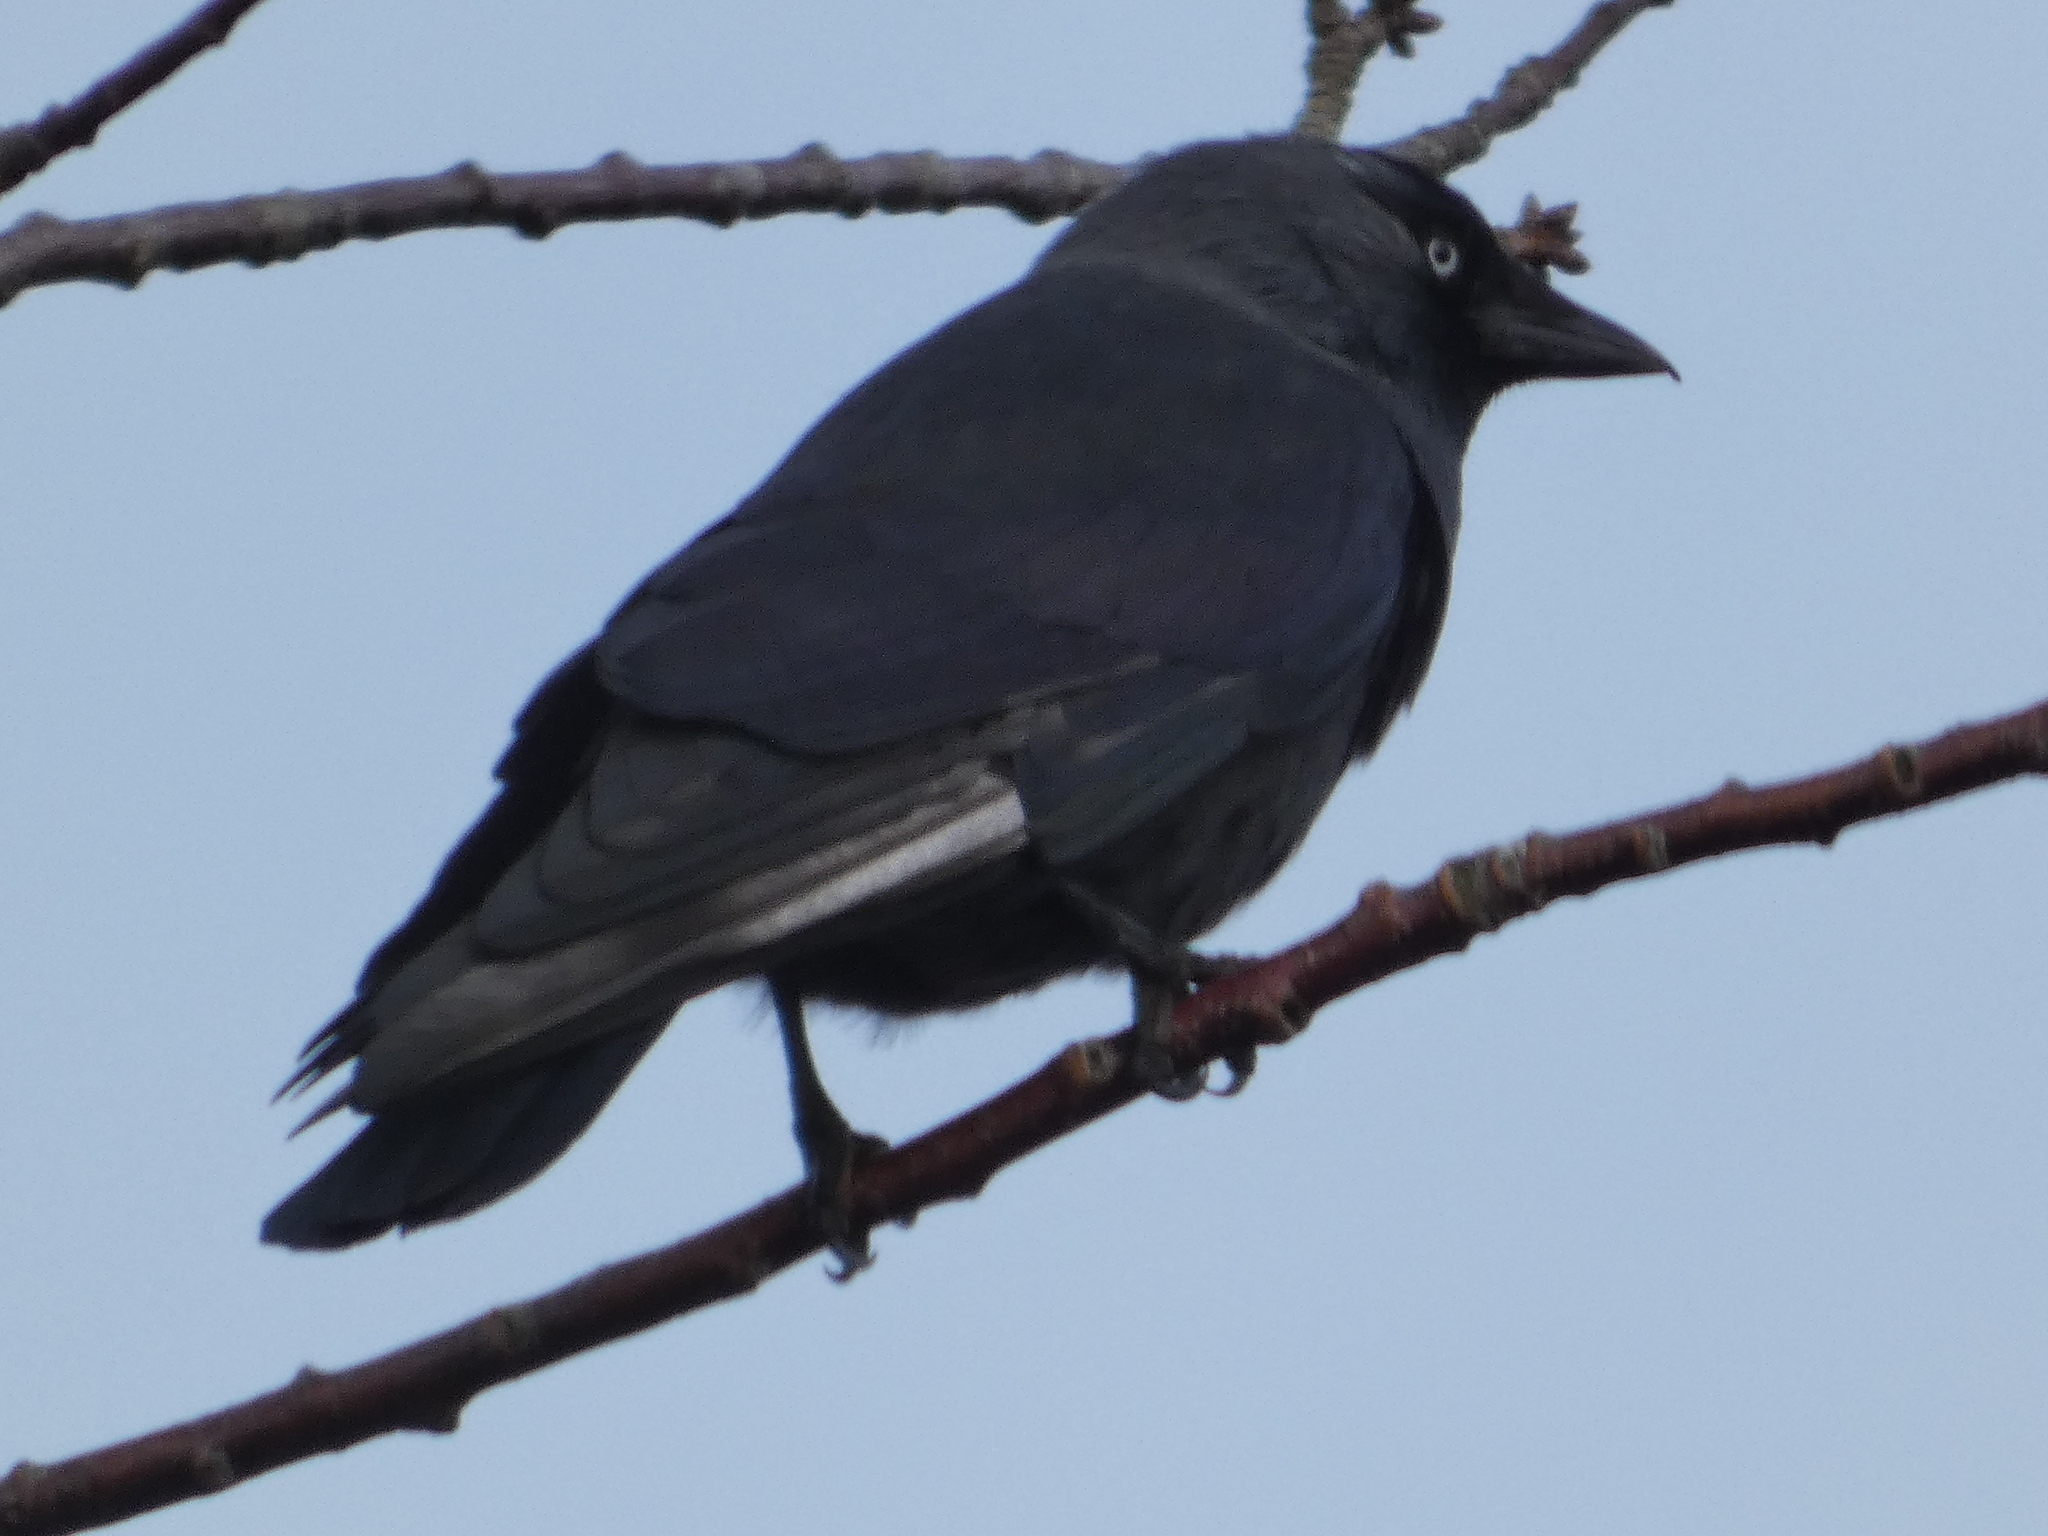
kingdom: Animalia
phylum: Chordata
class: Aves
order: Passeriformes
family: Corvidae
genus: Coloeus
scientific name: Coloeus monedula
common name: Western jackdaw
